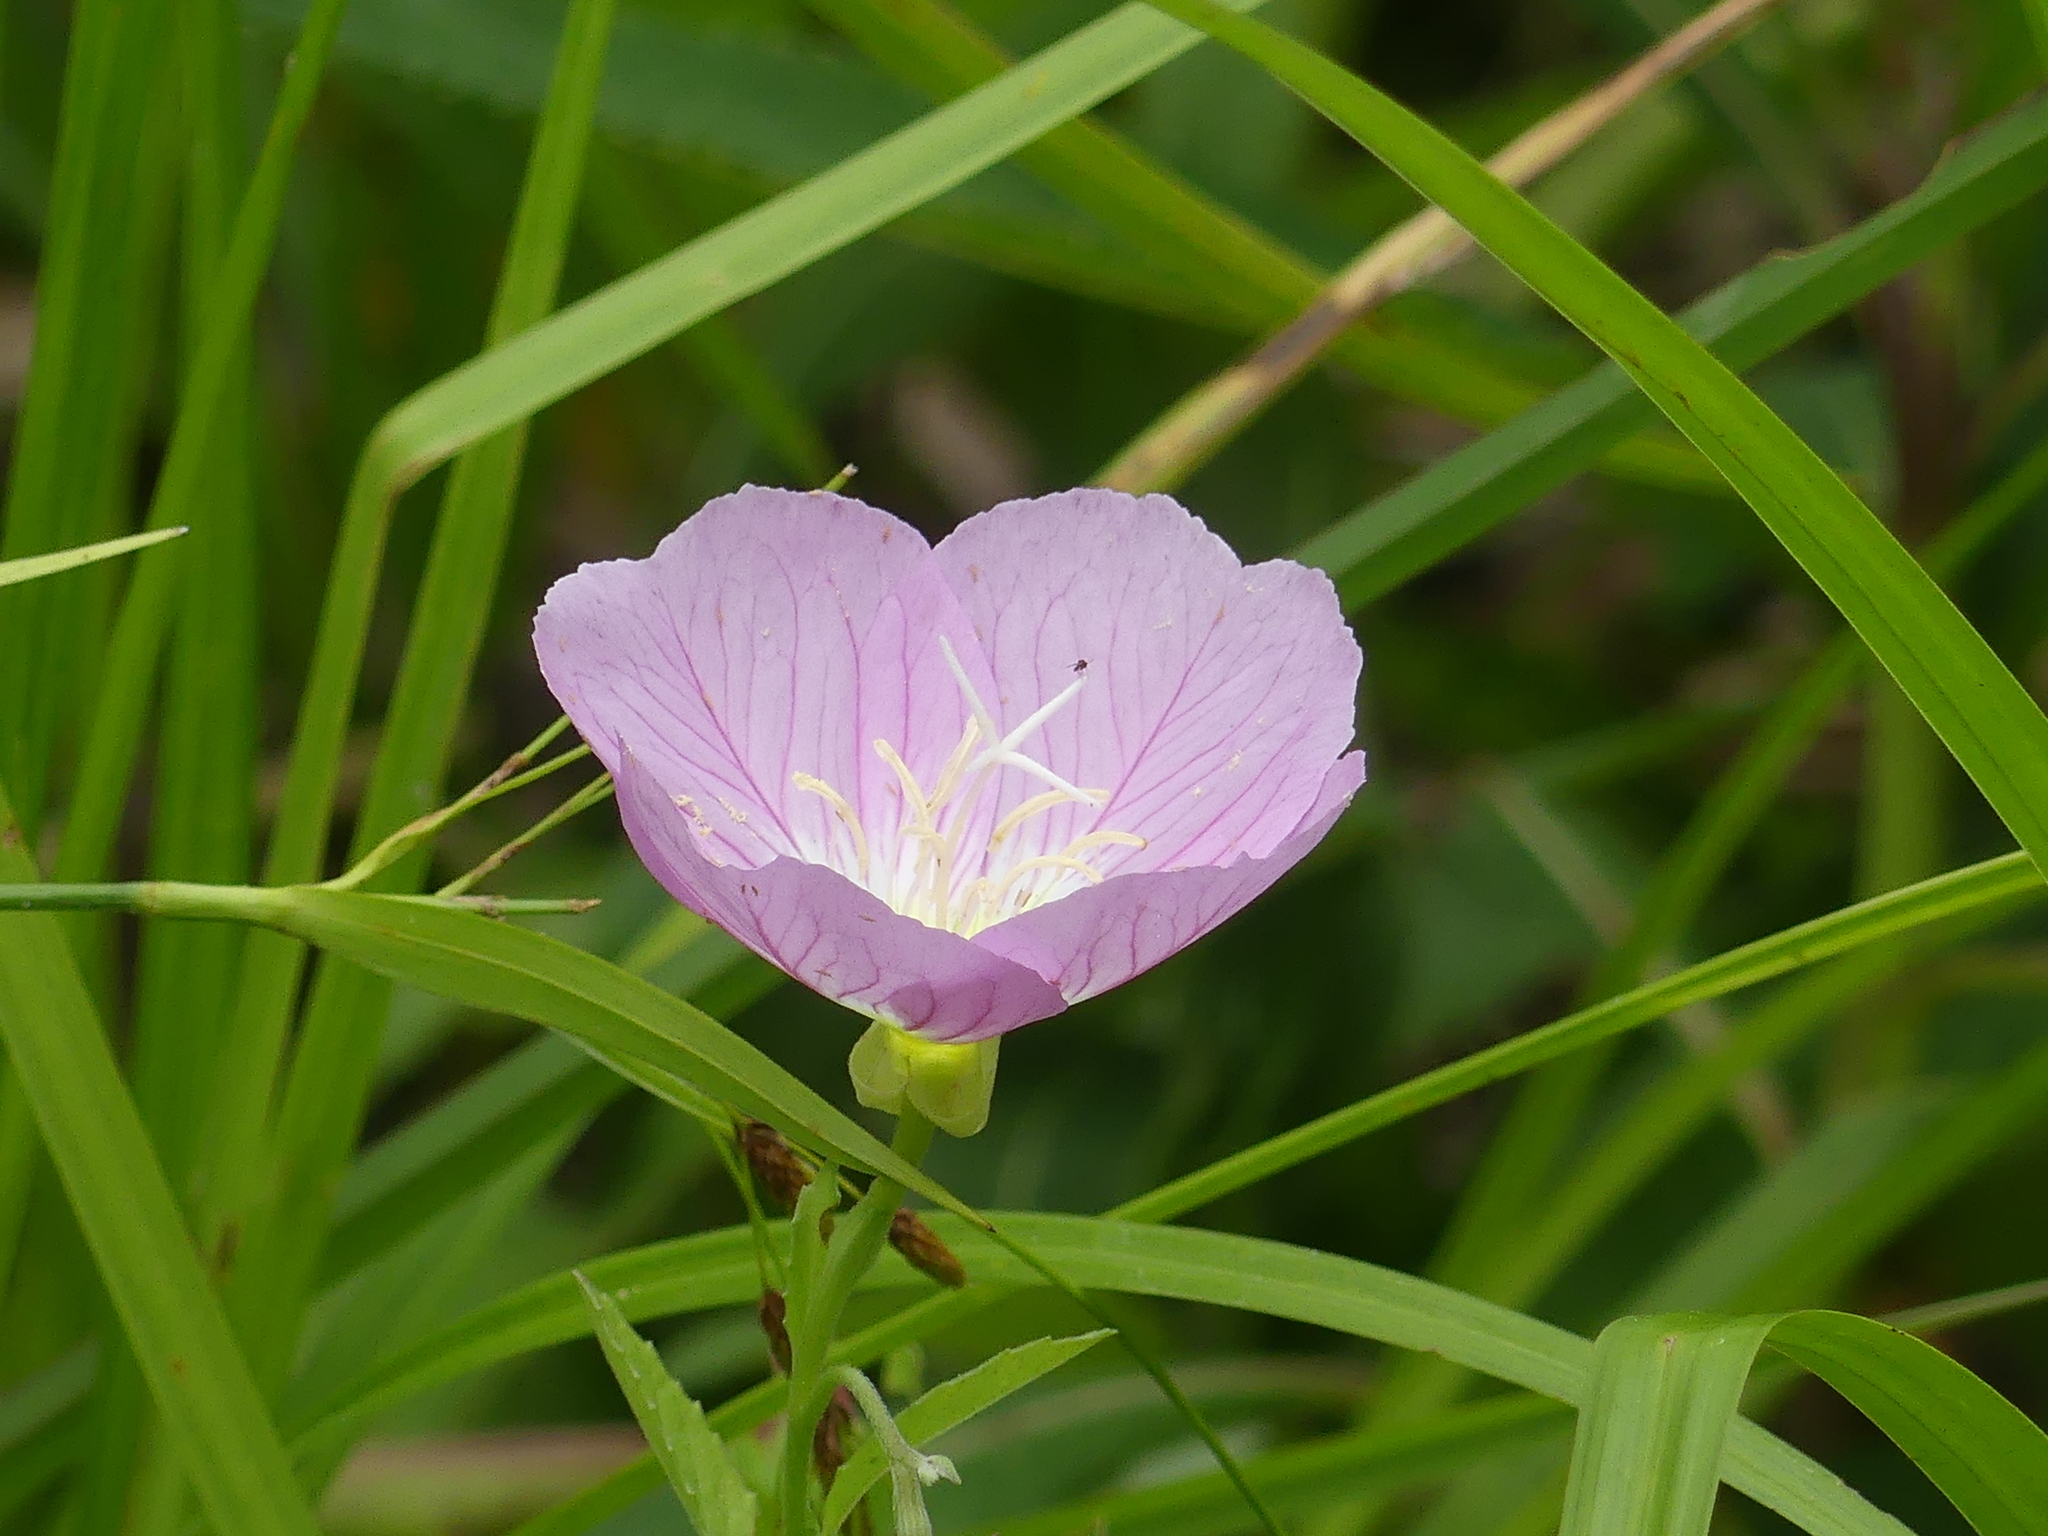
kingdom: Plantae
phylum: Tracheophyta
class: Magnoliopsida
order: Myrtales
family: Onagraceae
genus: Oenothera
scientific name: Oenothera speciosa
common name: White evening-primrose
